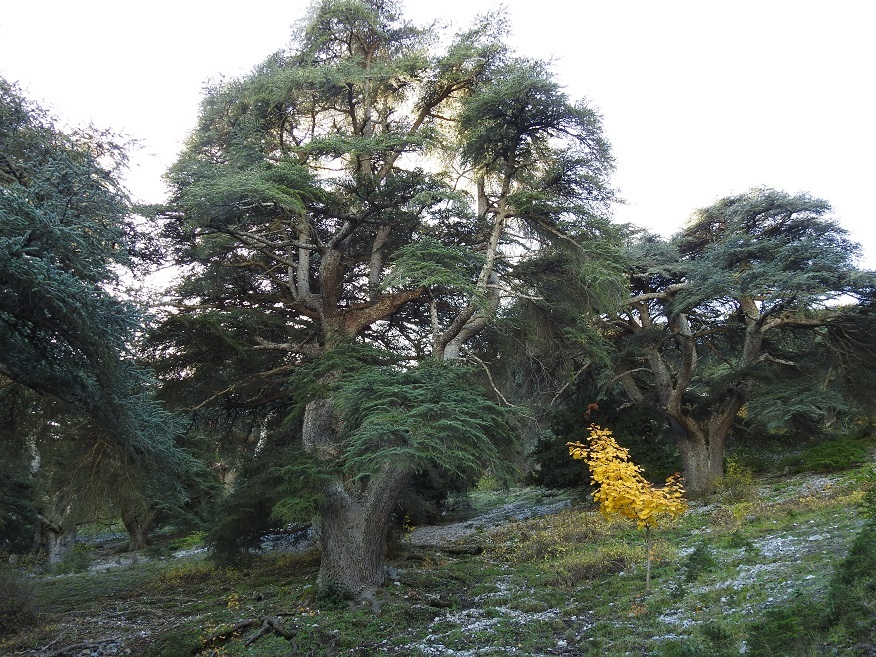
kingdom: Plantae
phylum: Tracheophyta
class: Pinopsida
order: Pinales
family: Pinaceae
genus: Cedrus
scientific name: Cedrus atlantica
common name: Atlas cedar
